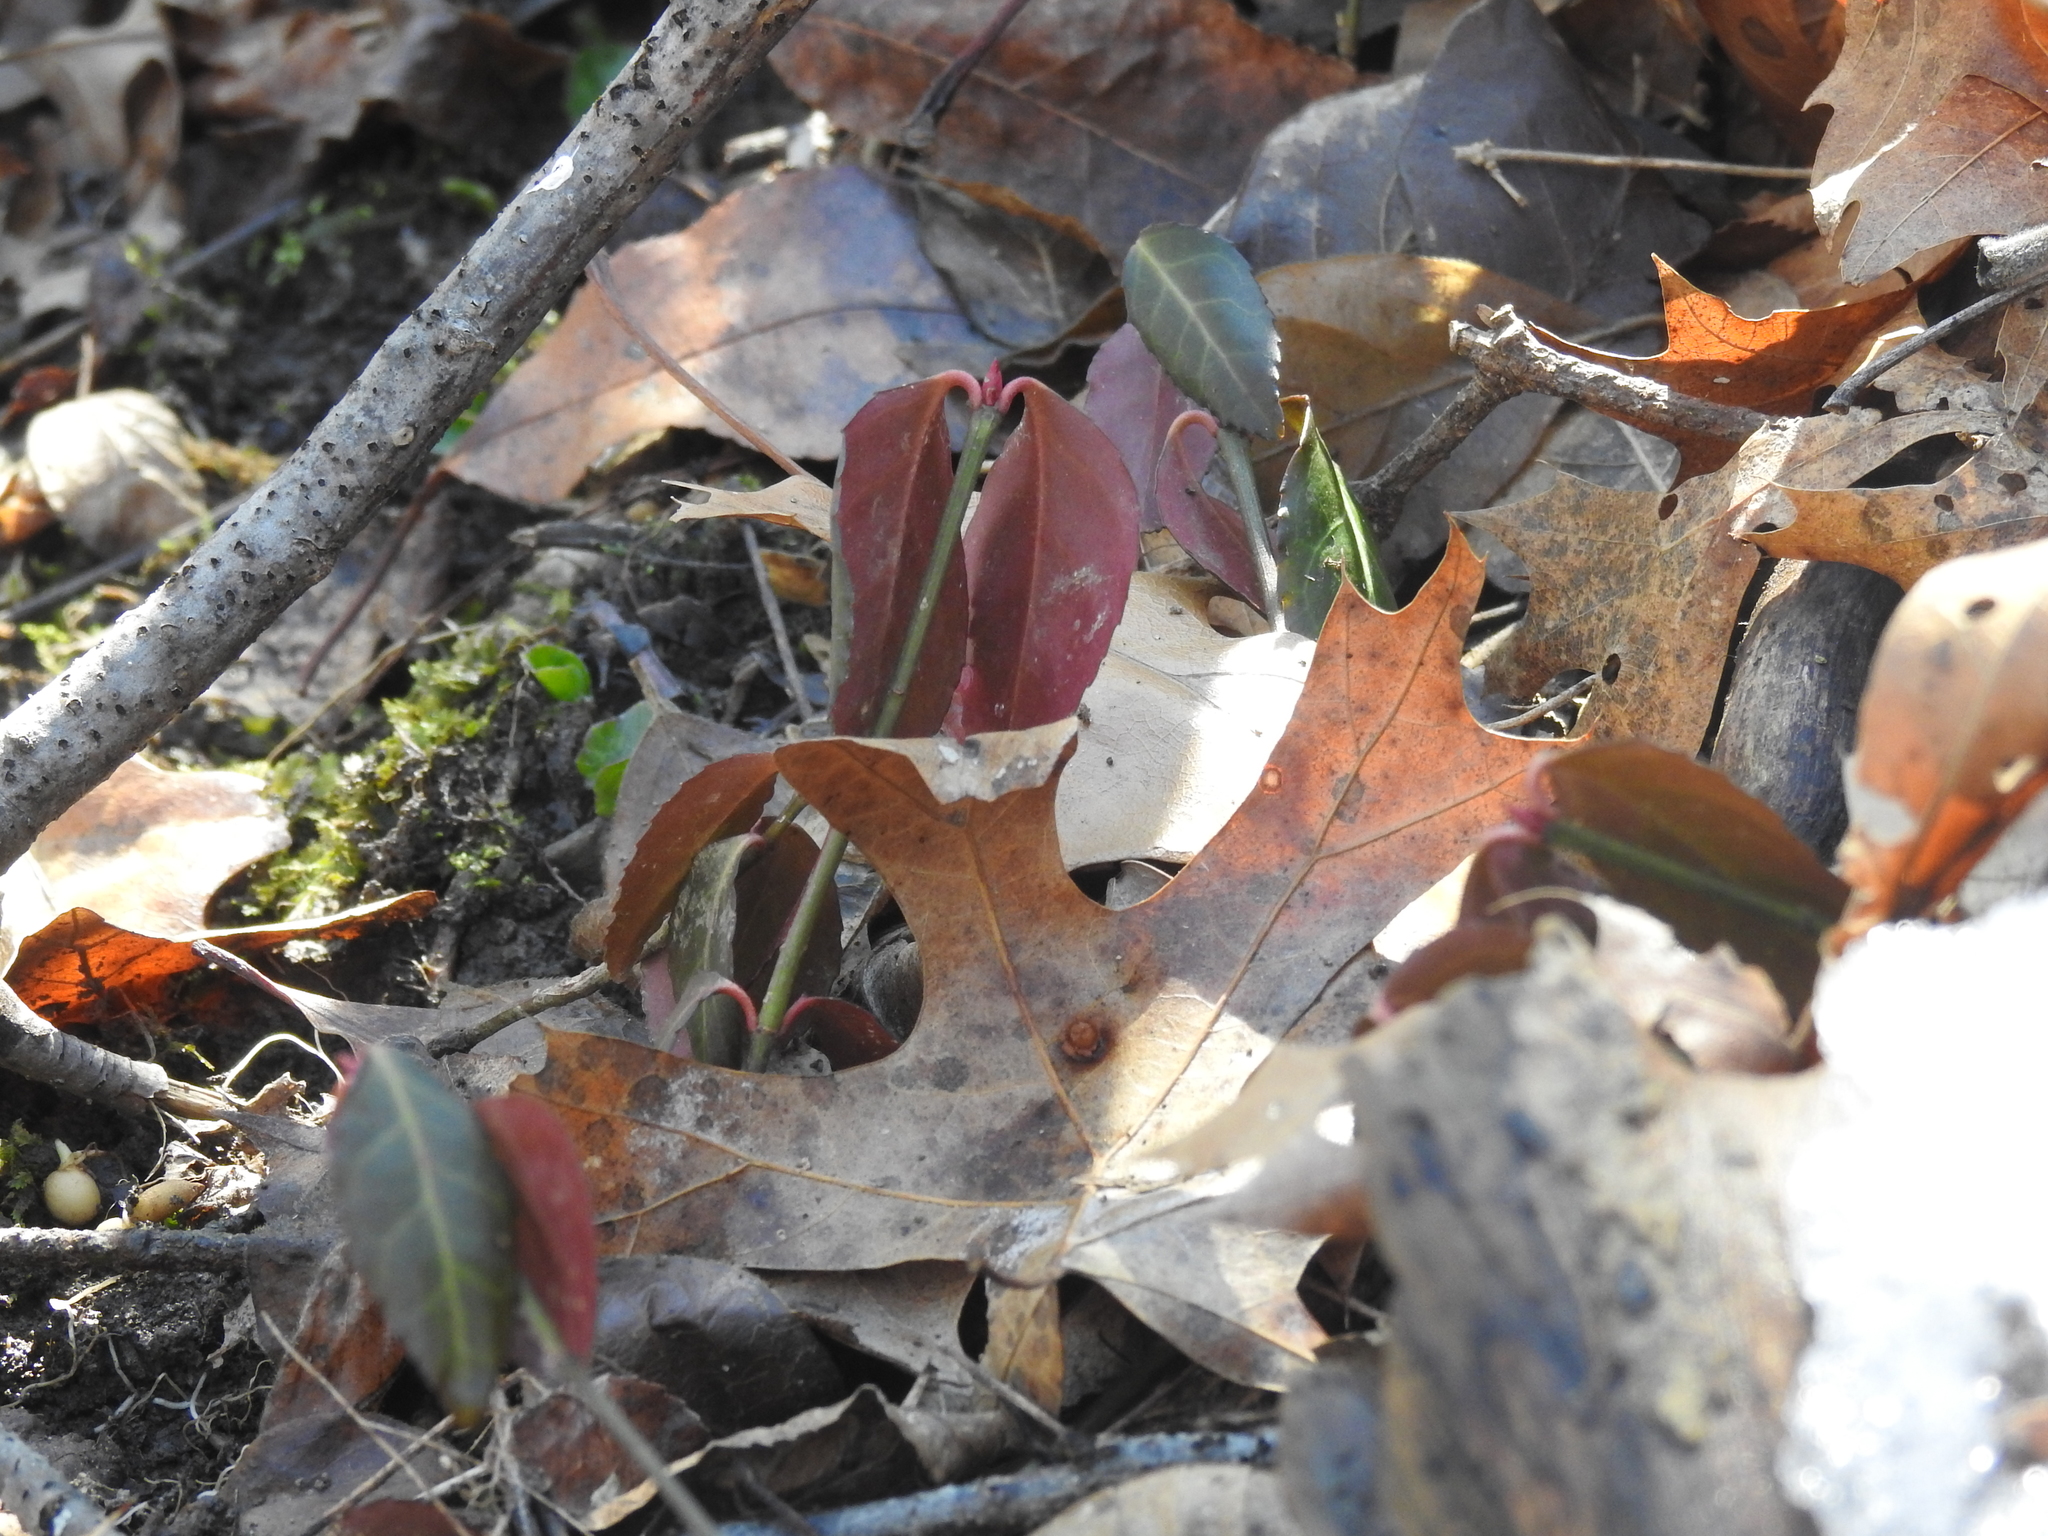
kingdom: Plantae
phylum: Tracheophyta
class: Magnoliopsida
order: Celastrales
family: Celastraceae
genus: Euonymus
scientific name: Euonymus fortunei
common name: Climbing euonymus
